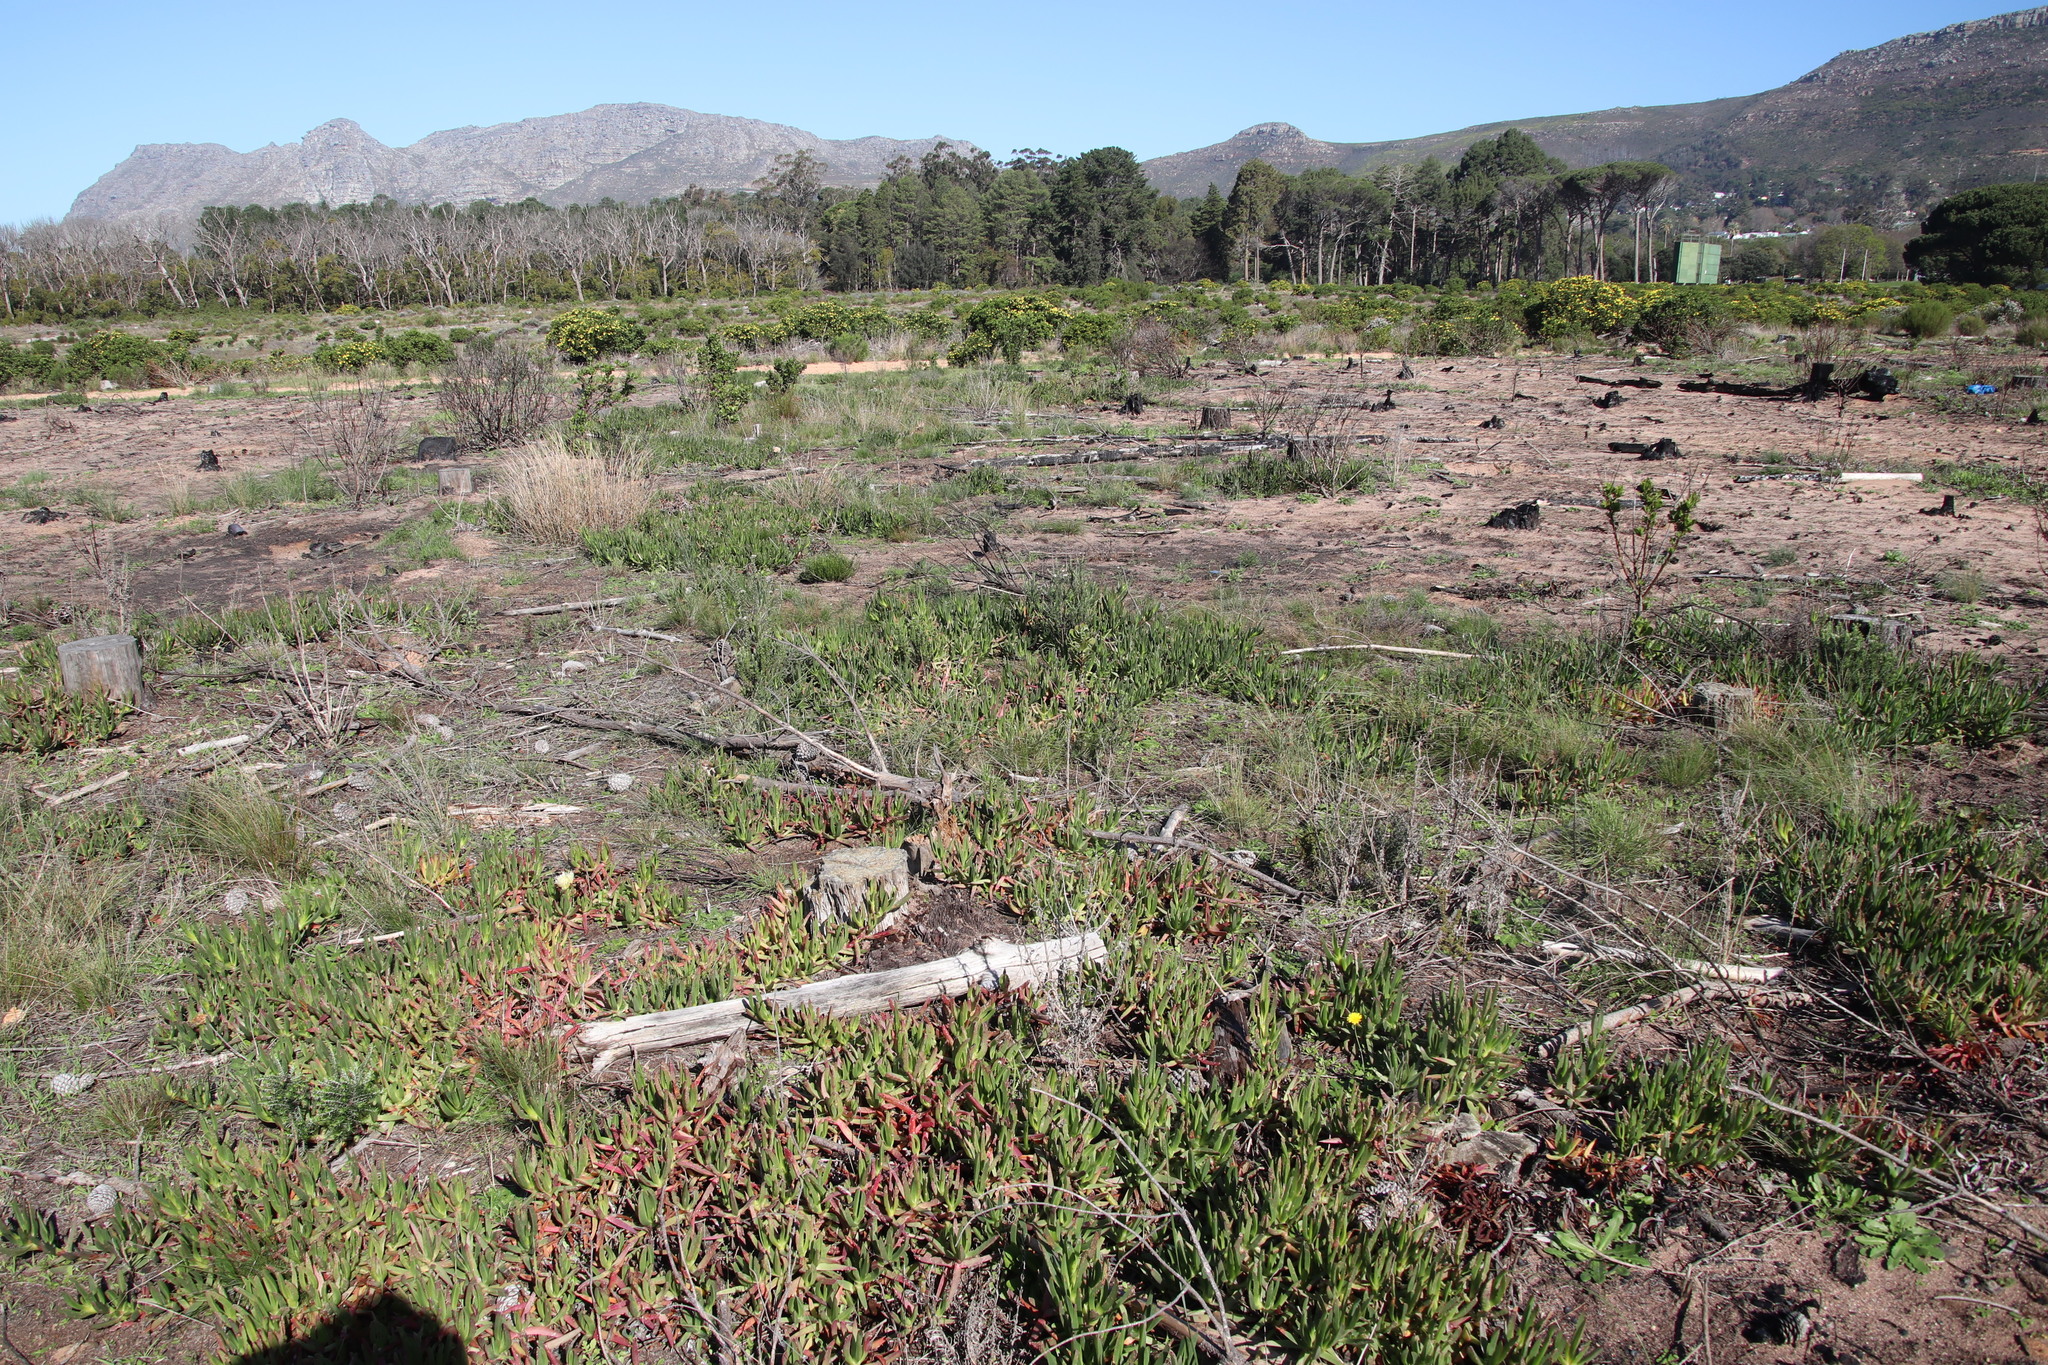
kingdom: Plantae
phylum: Tracheophyta
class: Magnoliopsida
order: Caryophyllales
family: Aizoaceae
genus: Carpobrotus
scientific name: Carpobrotus edulis
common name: Hottentot-fig
